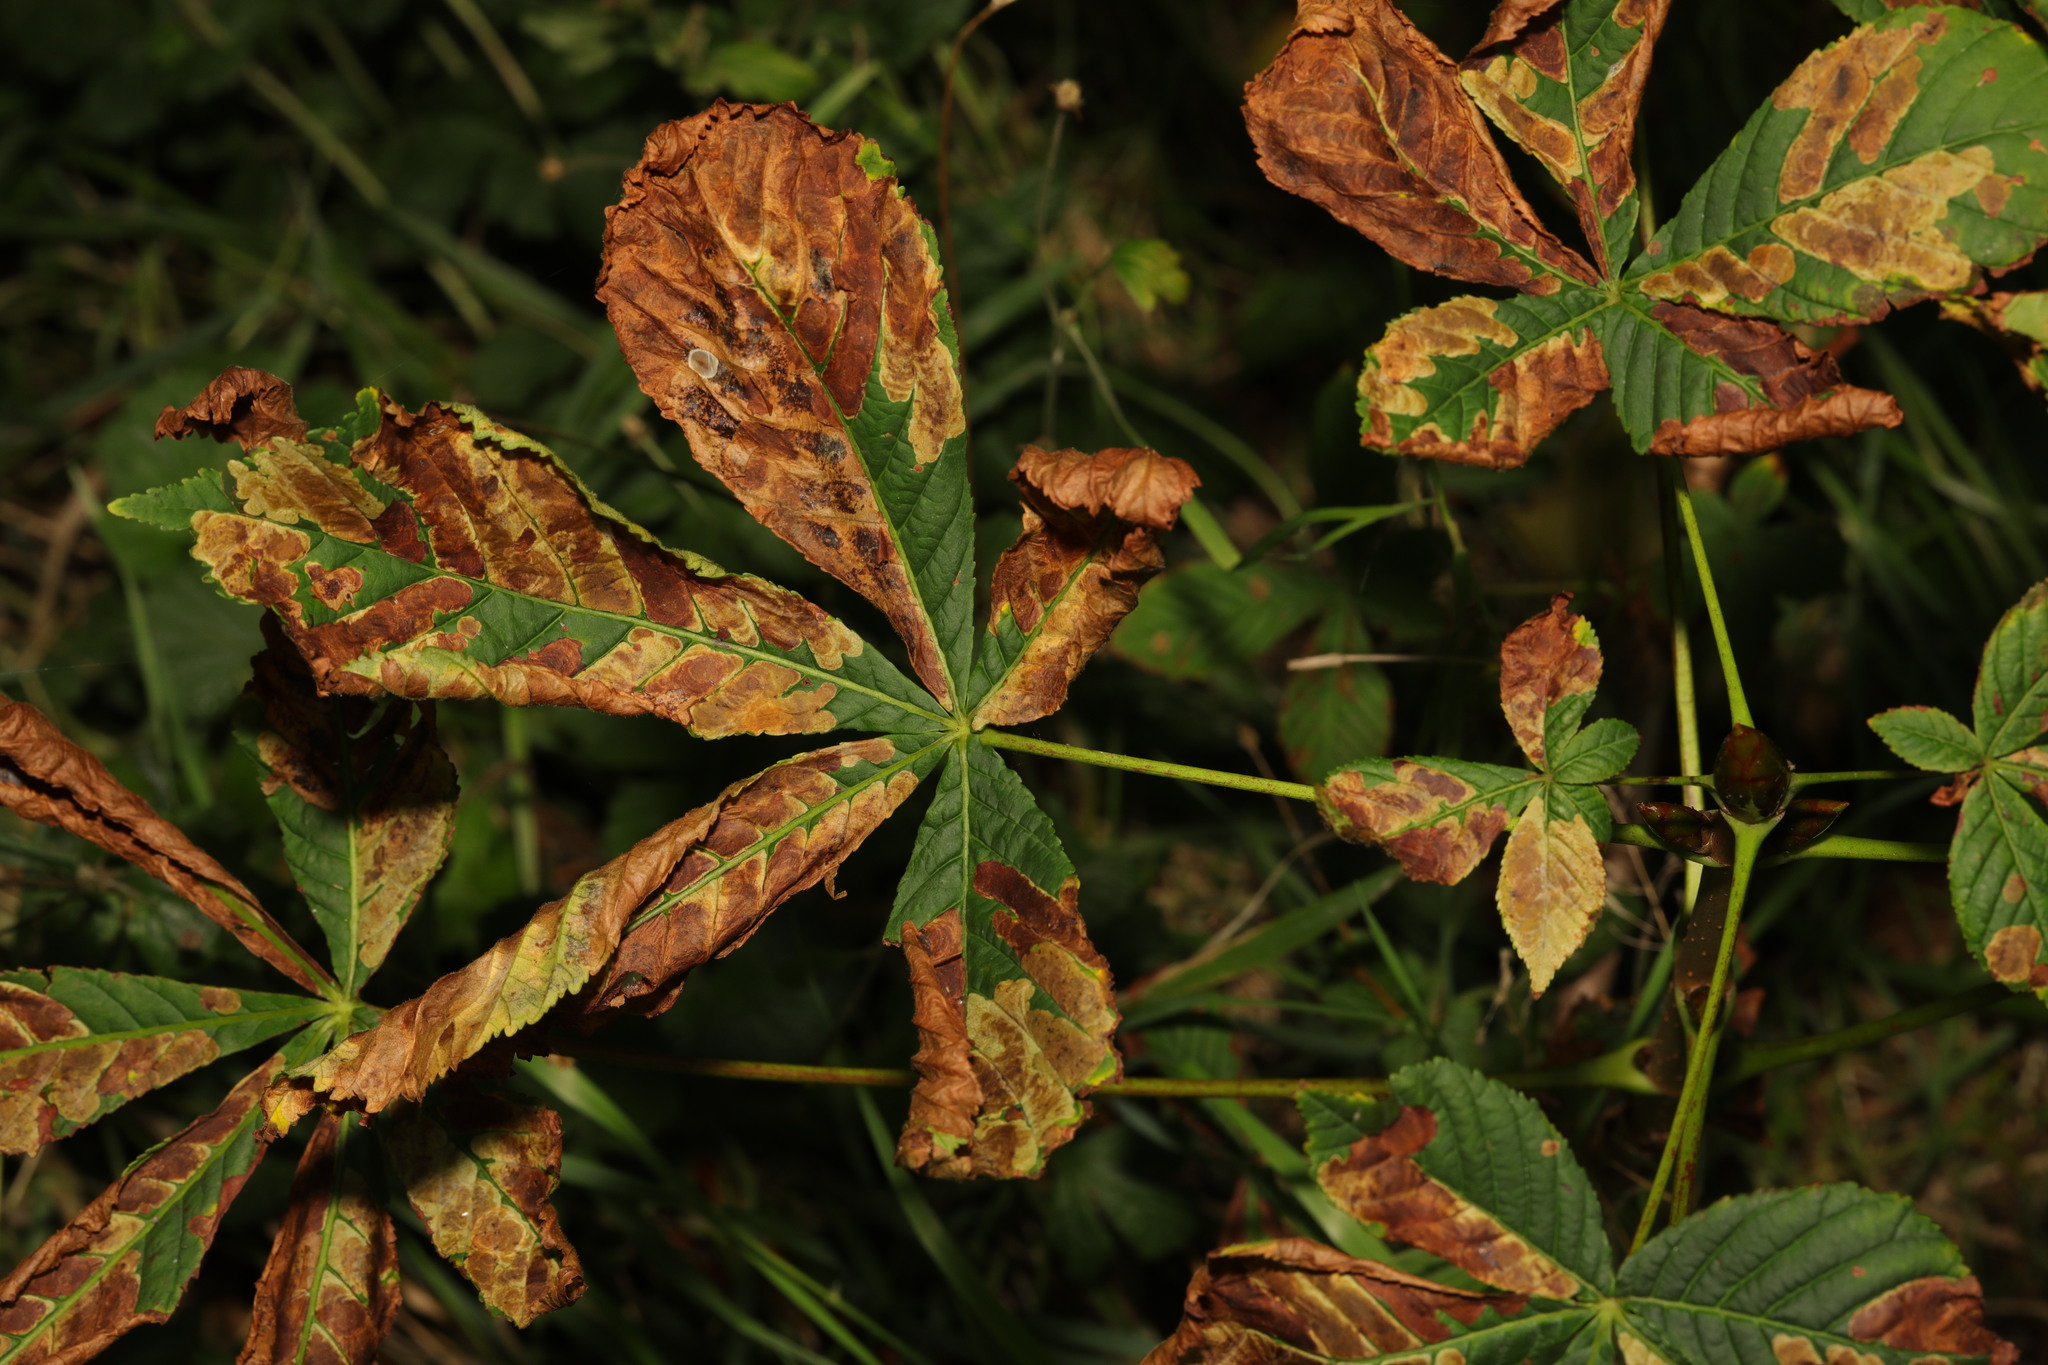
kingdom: Plantae
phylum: Tracheophyta
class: Magnoliopsida
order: Sapindales
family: Sapindaceae
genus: Aesculus
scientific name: Aesculus hippocastanum
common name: Horse-chestnut
